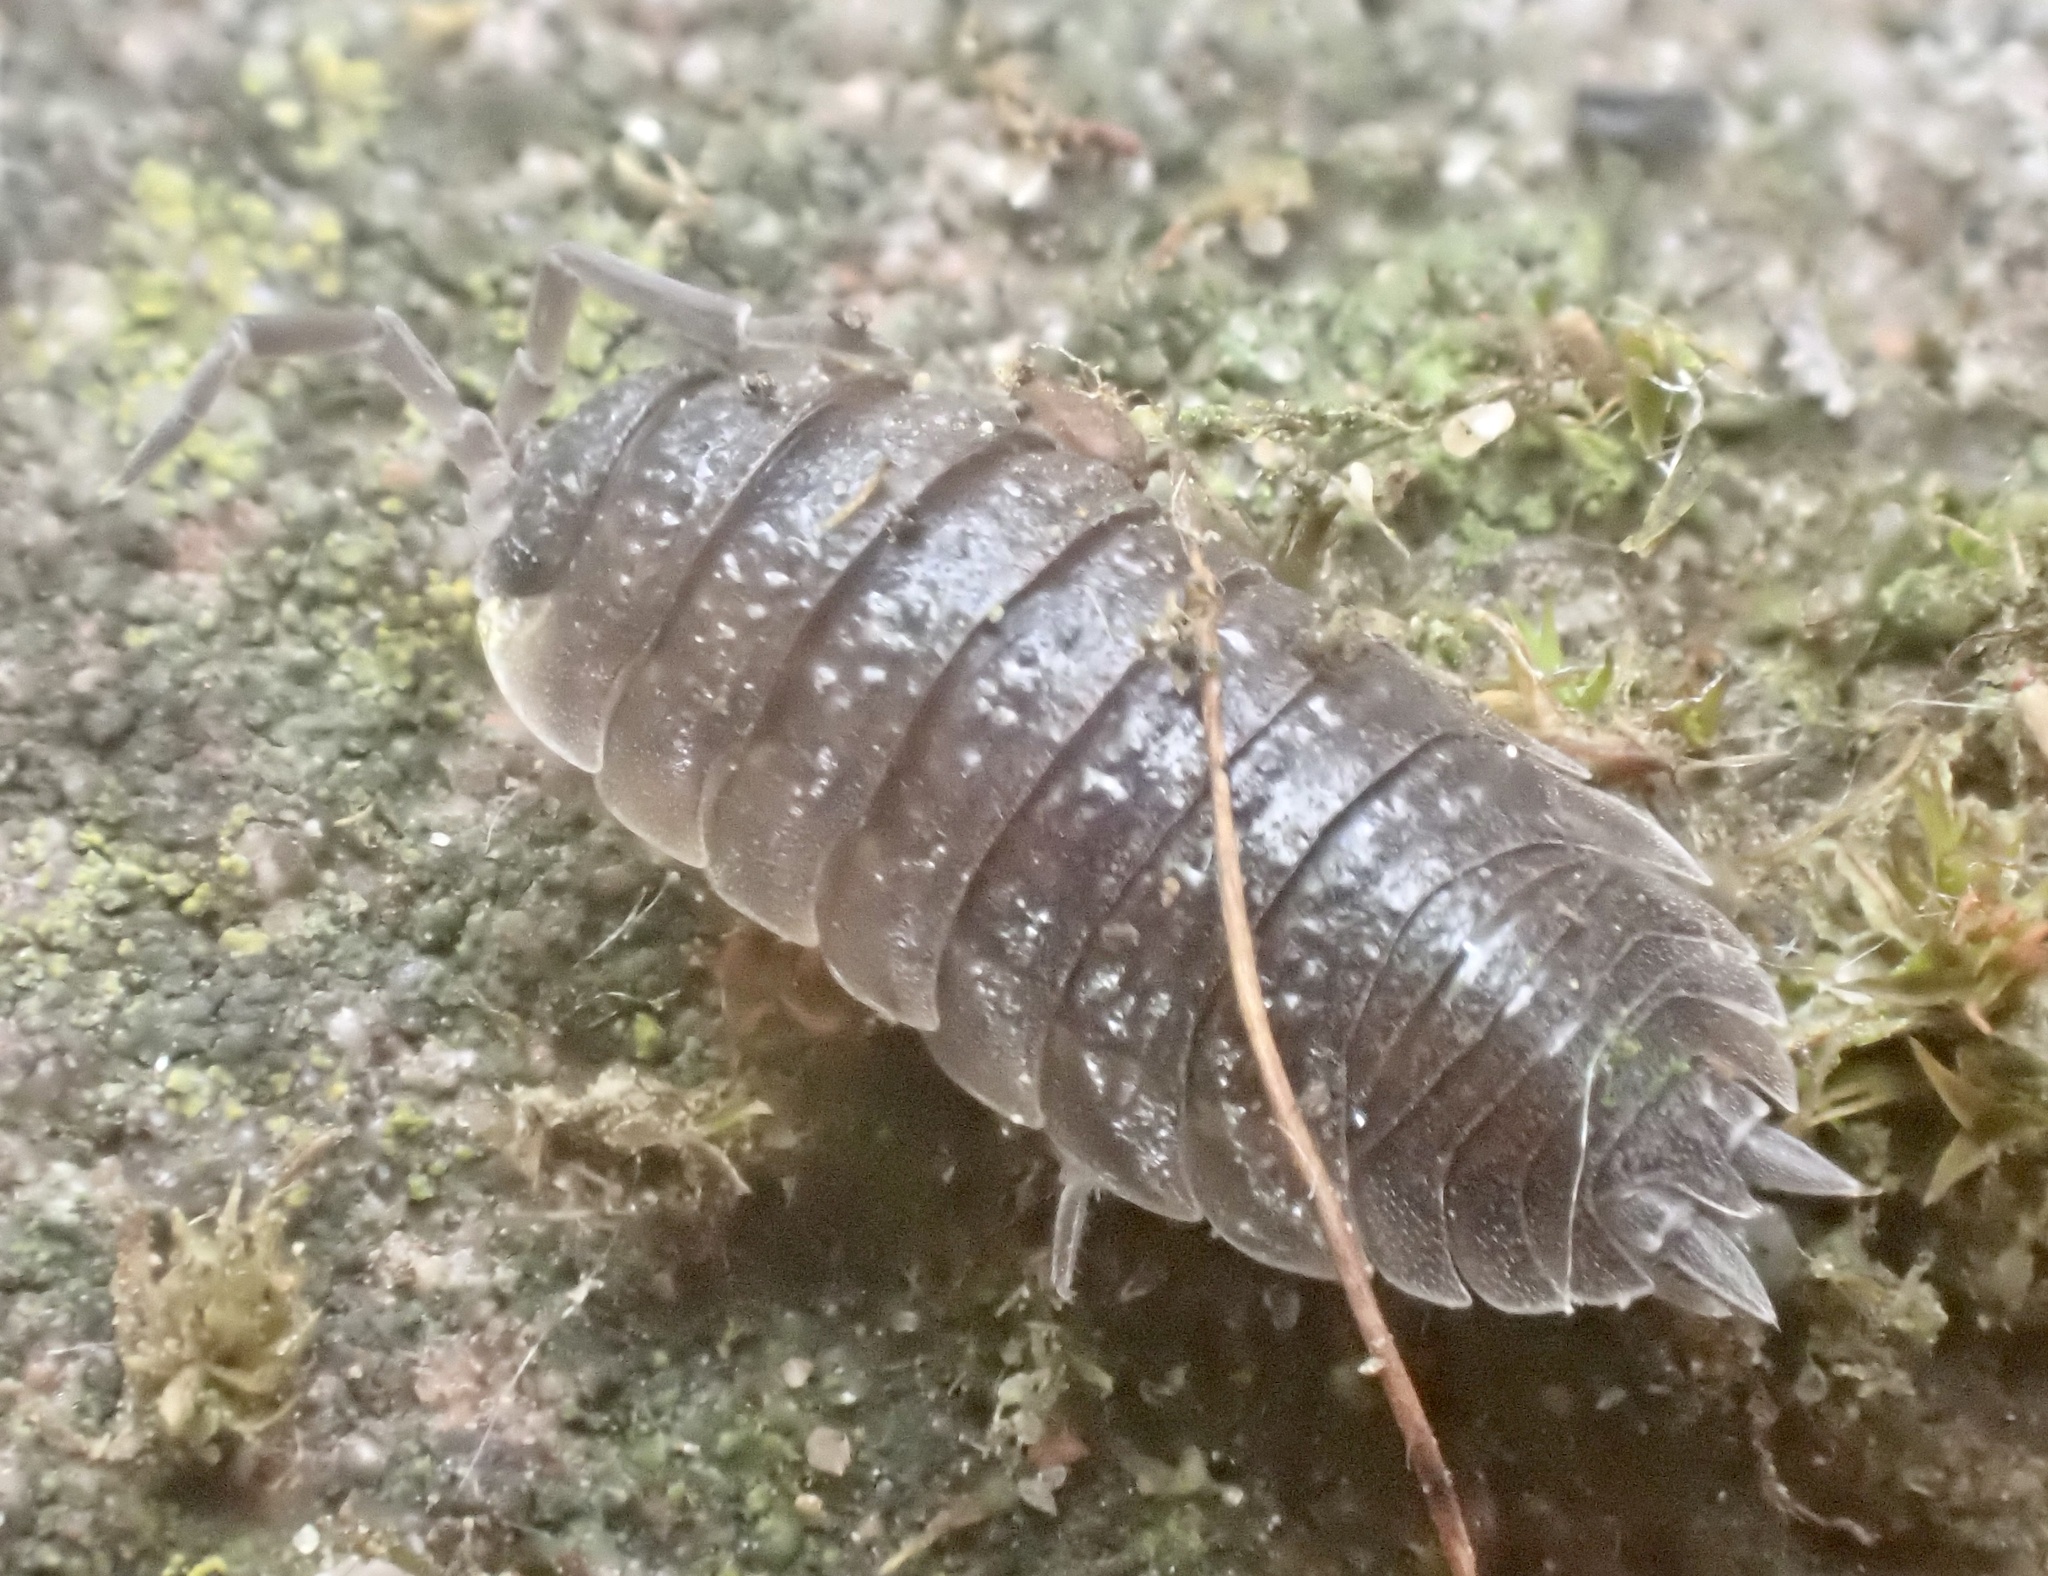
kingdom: Animalia
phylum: Arthropoda
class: Malacostraca
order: Isopoda
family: Porcellionidae
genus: Porcellio
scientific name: Porcellio scaber
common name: Common rough woodlouse
